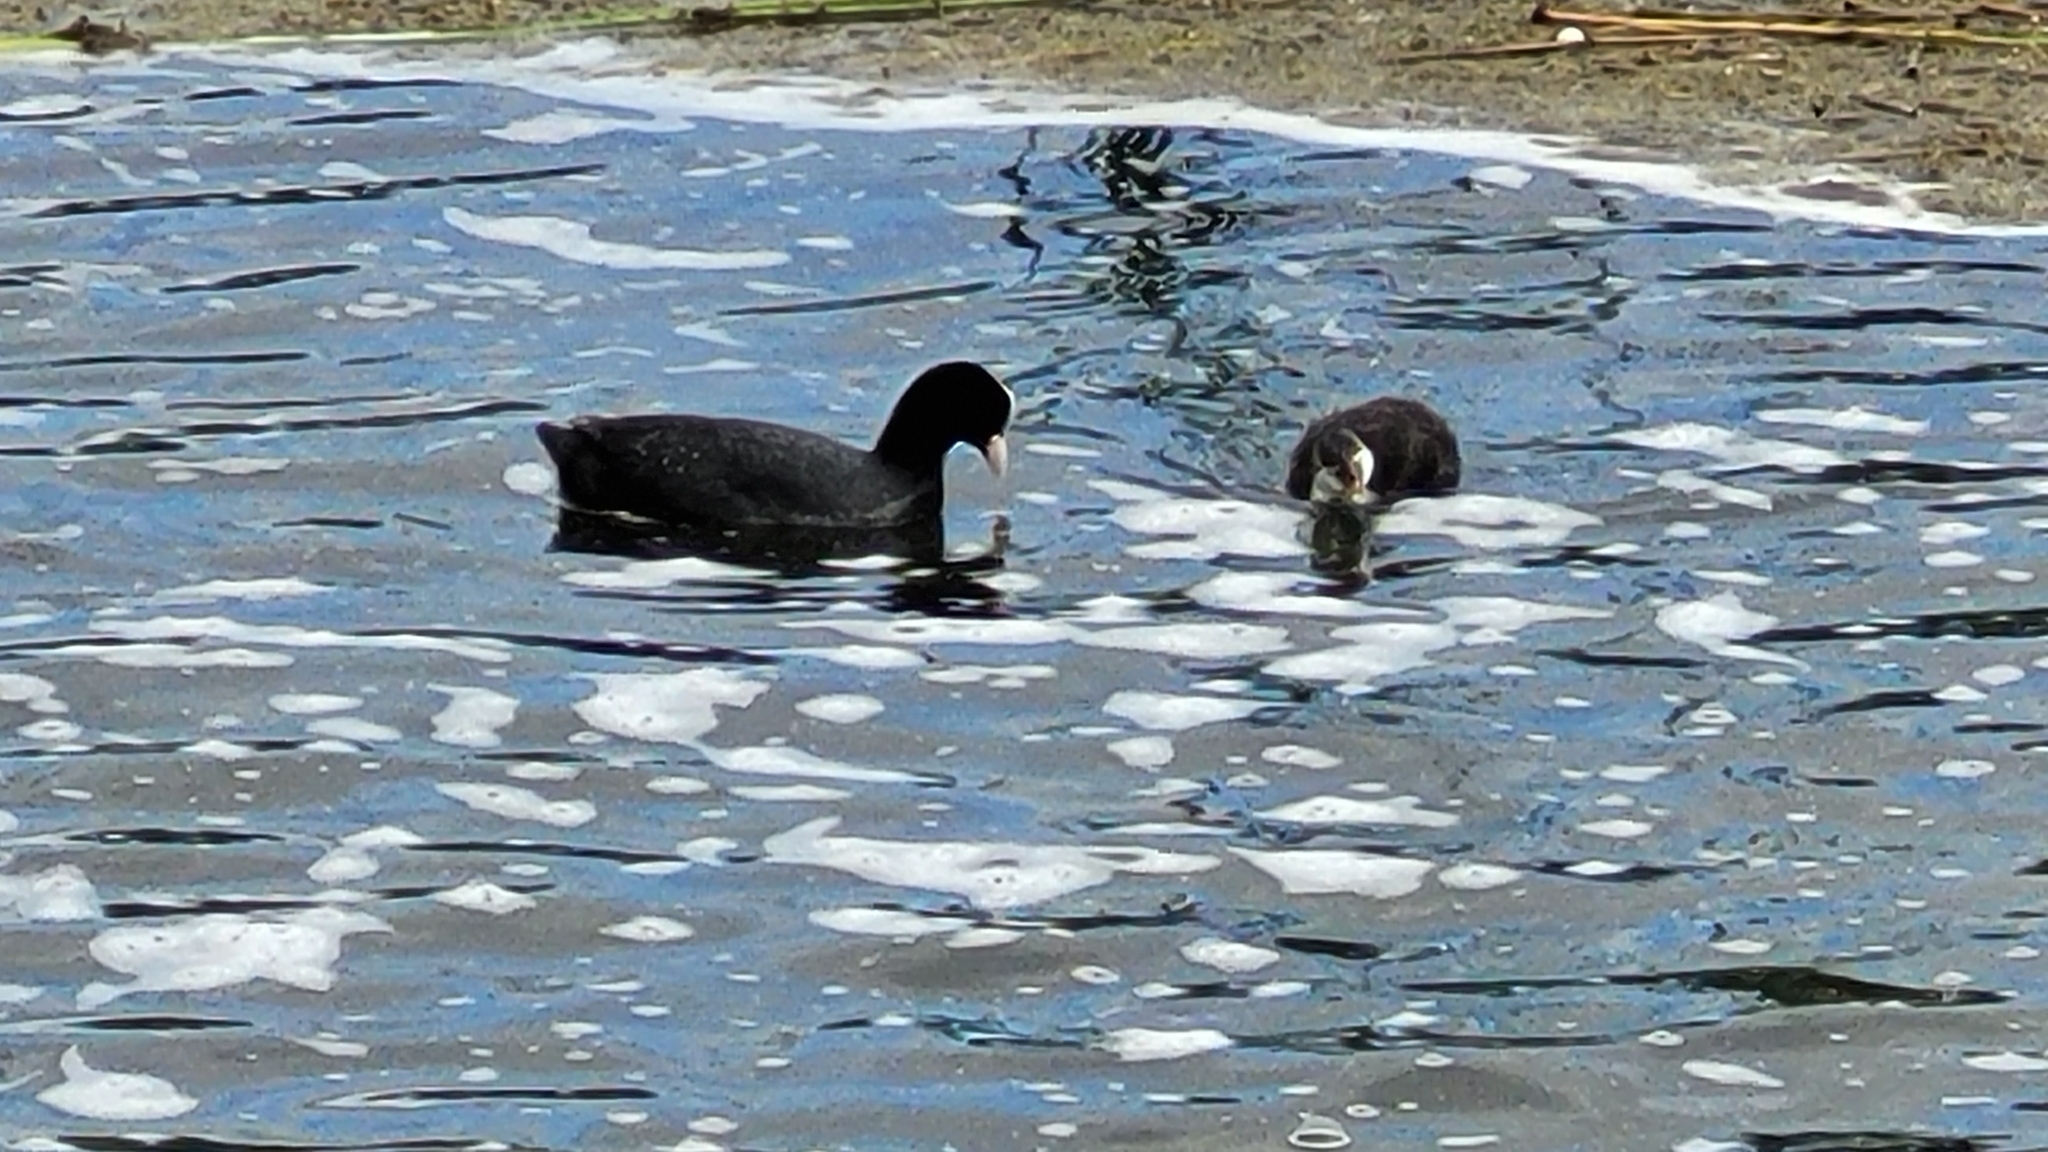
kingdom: Animalia
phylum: Chordata
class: Aves
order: Gruiformes
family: Rallidae
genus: Fulica
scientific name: Fulica atra
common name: Eurasian coot
